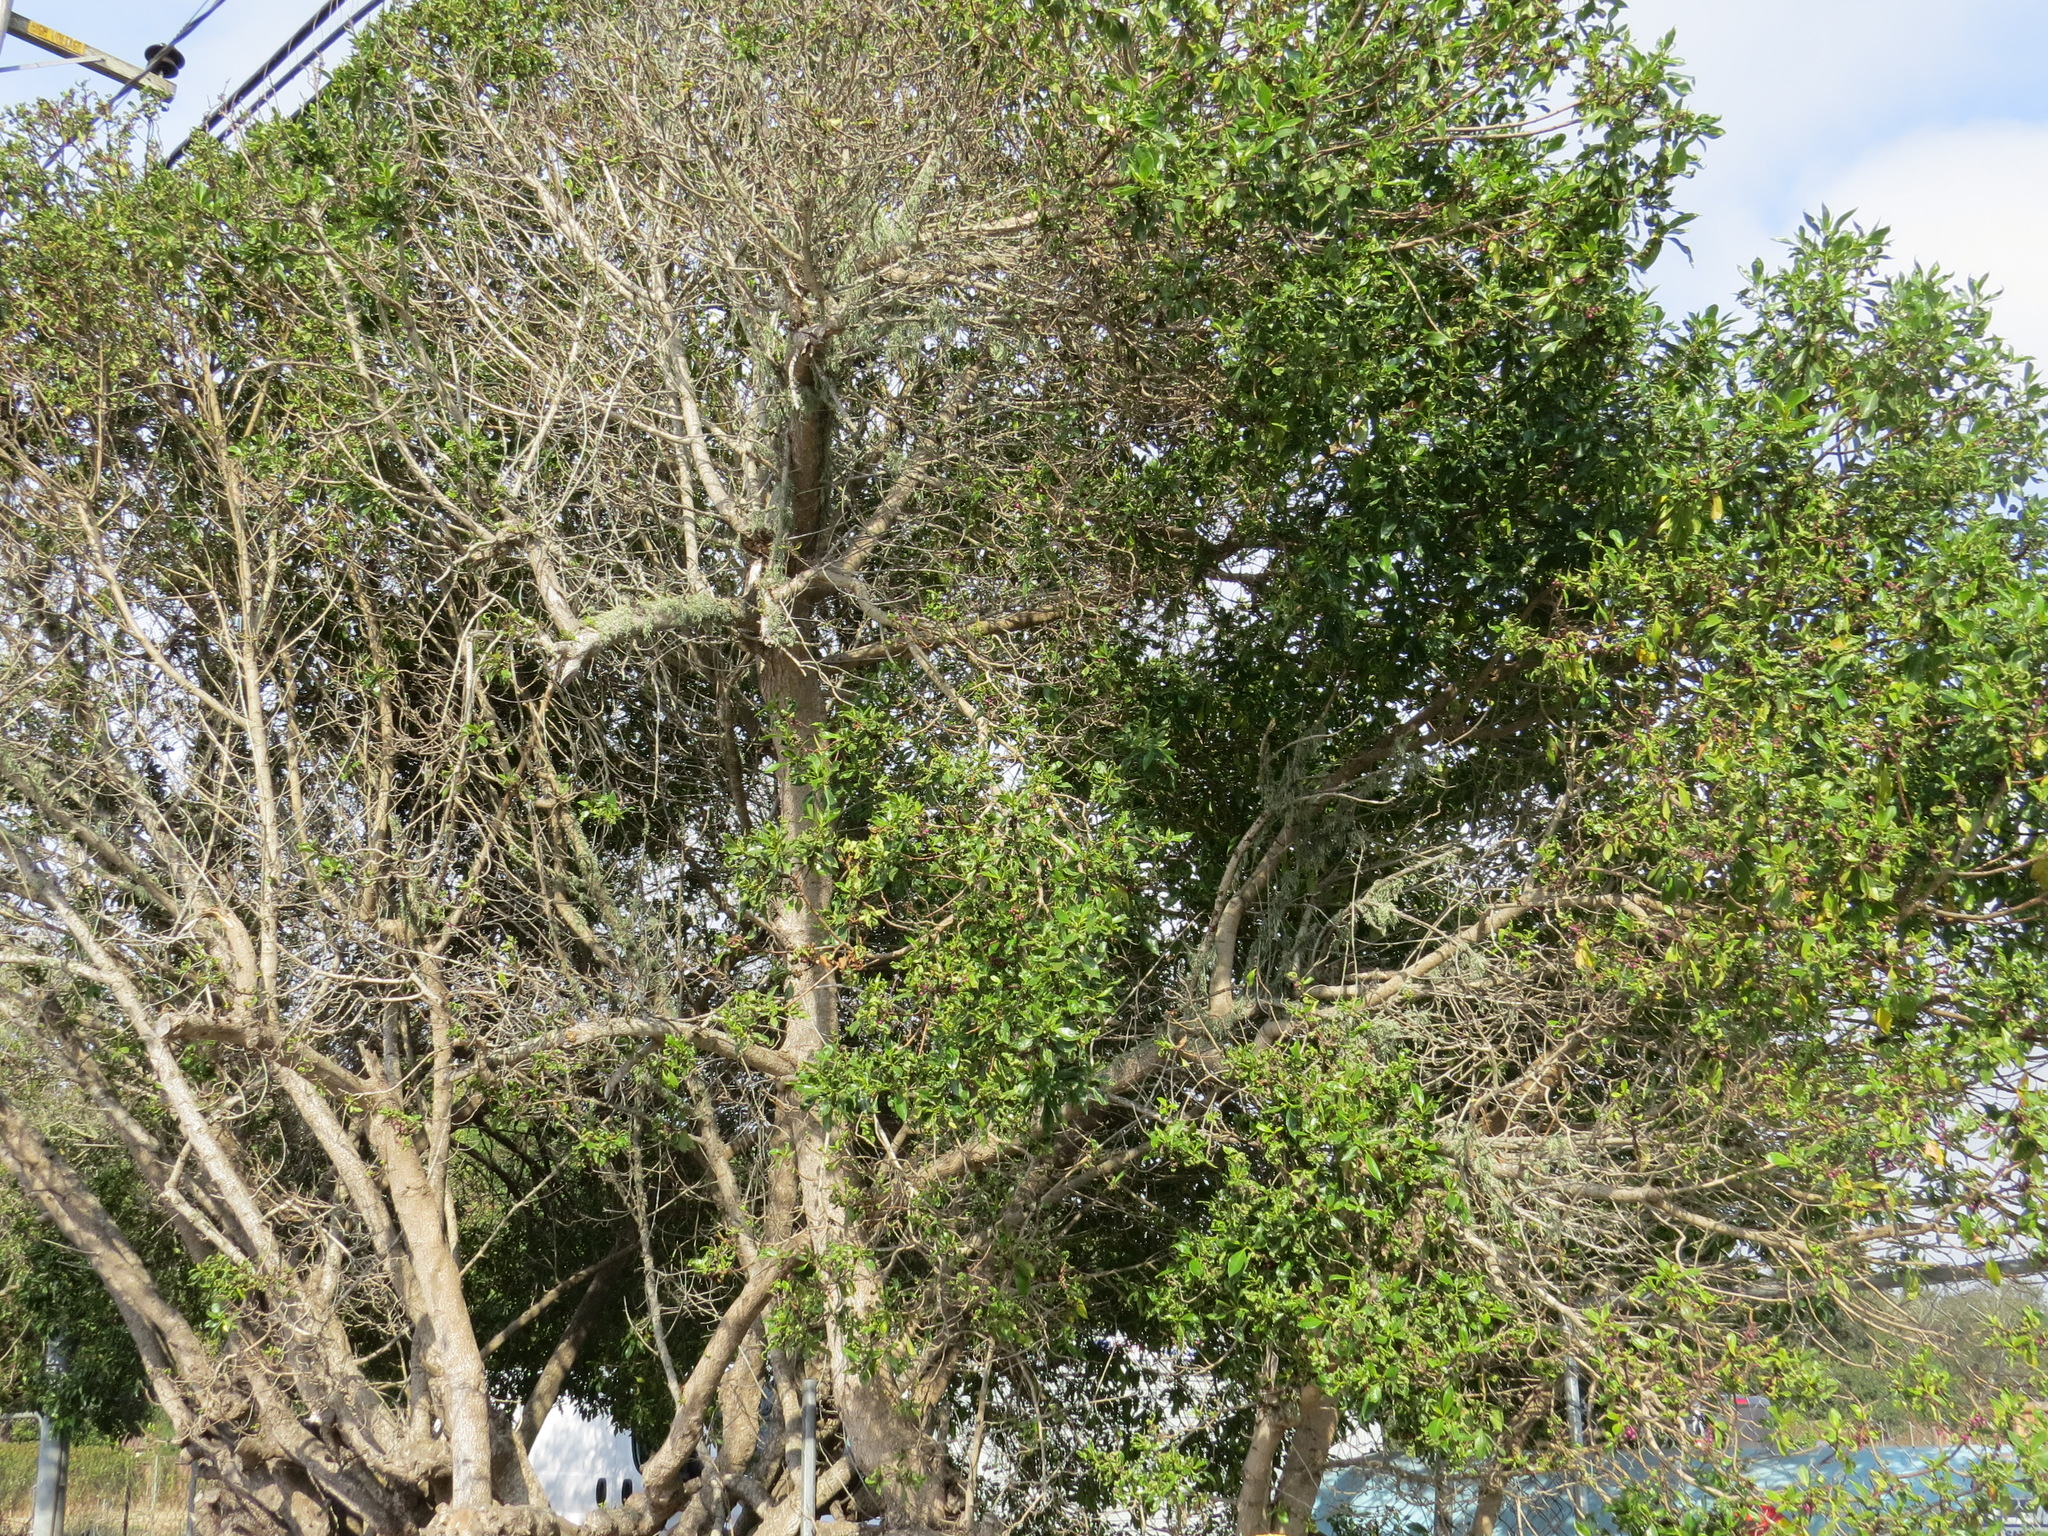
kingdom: Plantae
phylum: Tracheophyta
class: Magnoliopsida
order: Lamiales
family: Scrophulariaceae
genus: Myoporum
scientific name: Myoporum laetum
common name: Ngaio tree
